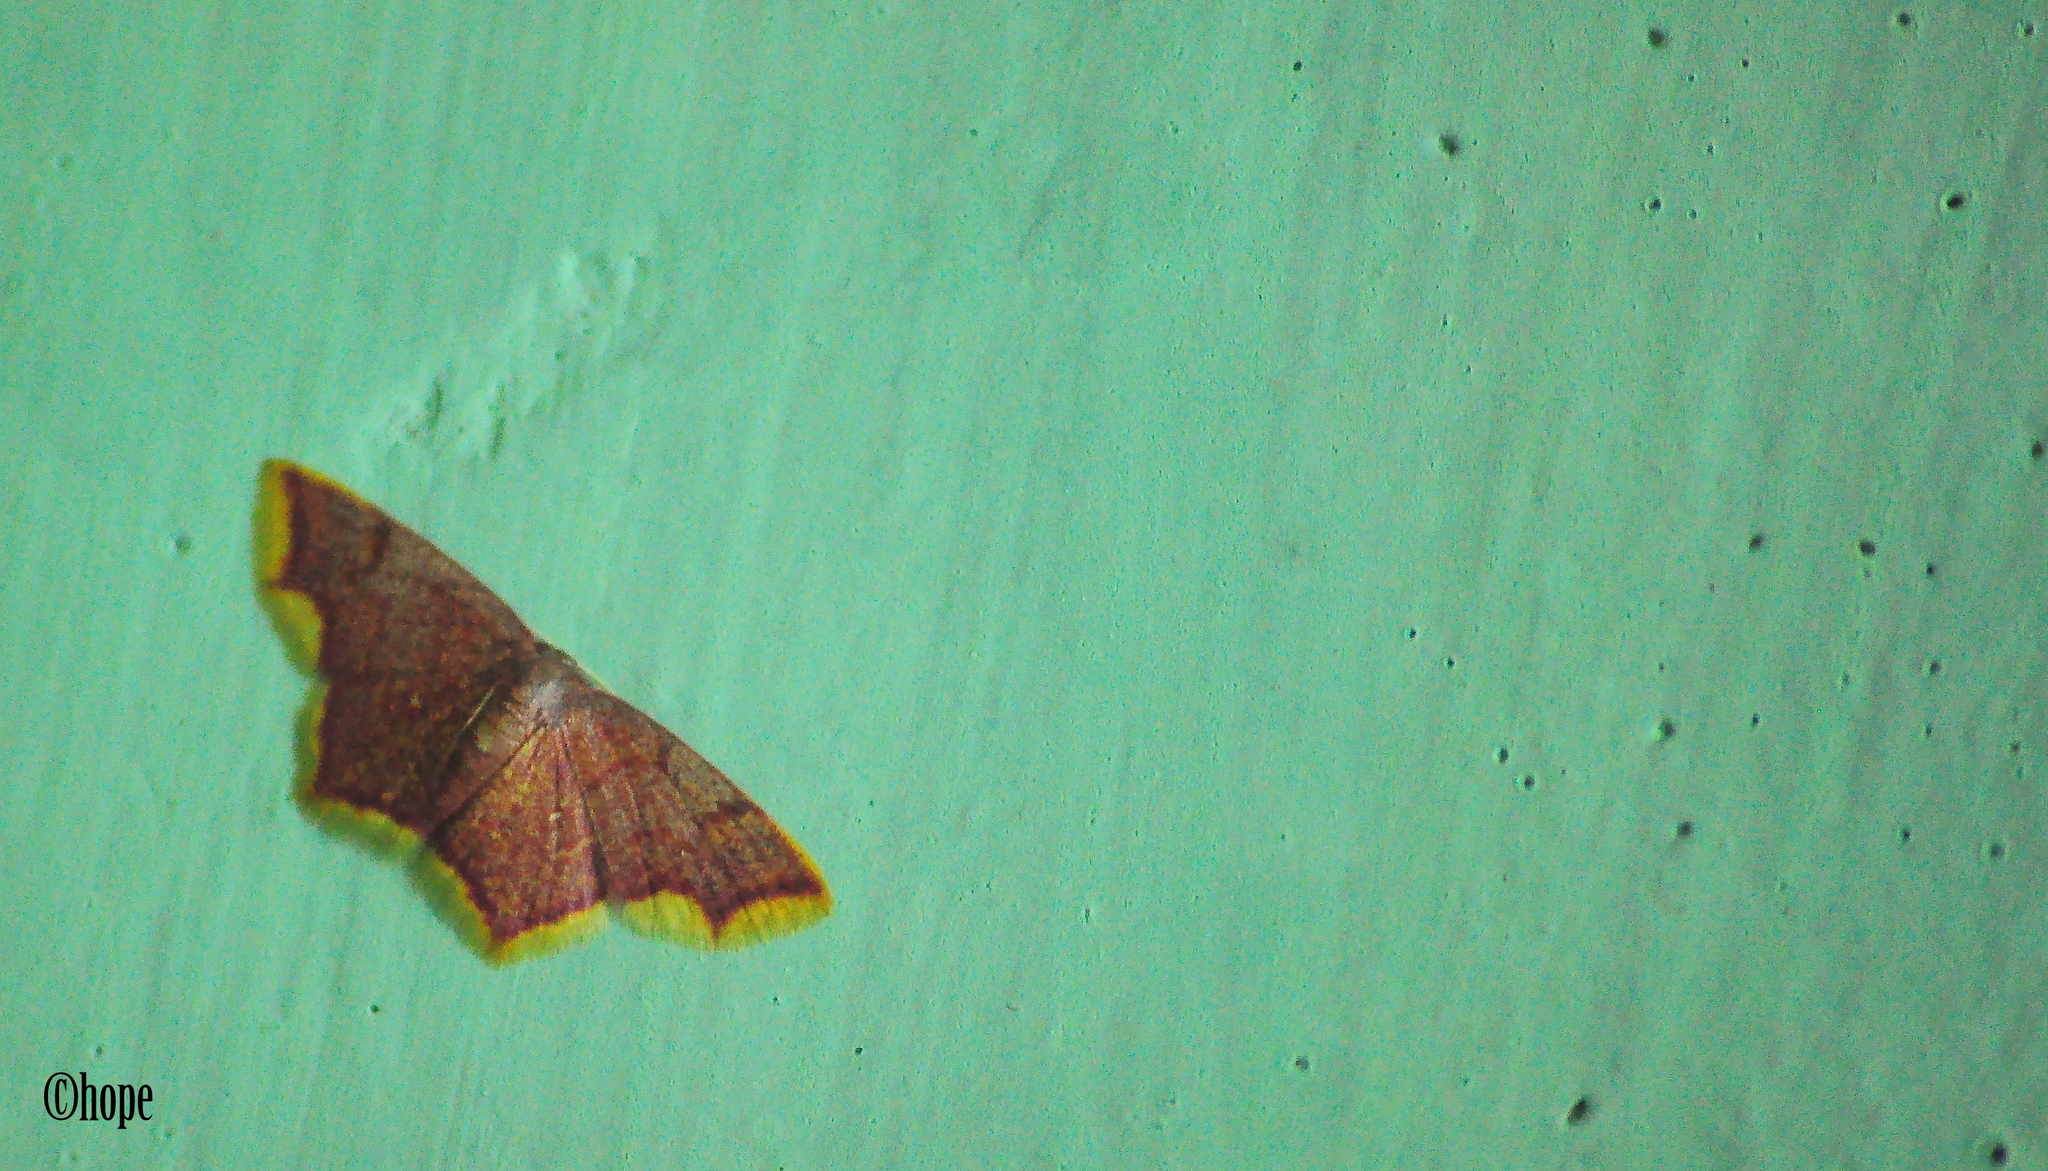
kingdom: Animalia
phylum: Arthropoda
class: Insecta
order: Lepidoptera
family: Geometridae
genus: Chrysocraspeda
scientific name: Chrysocraspeda faganaria
